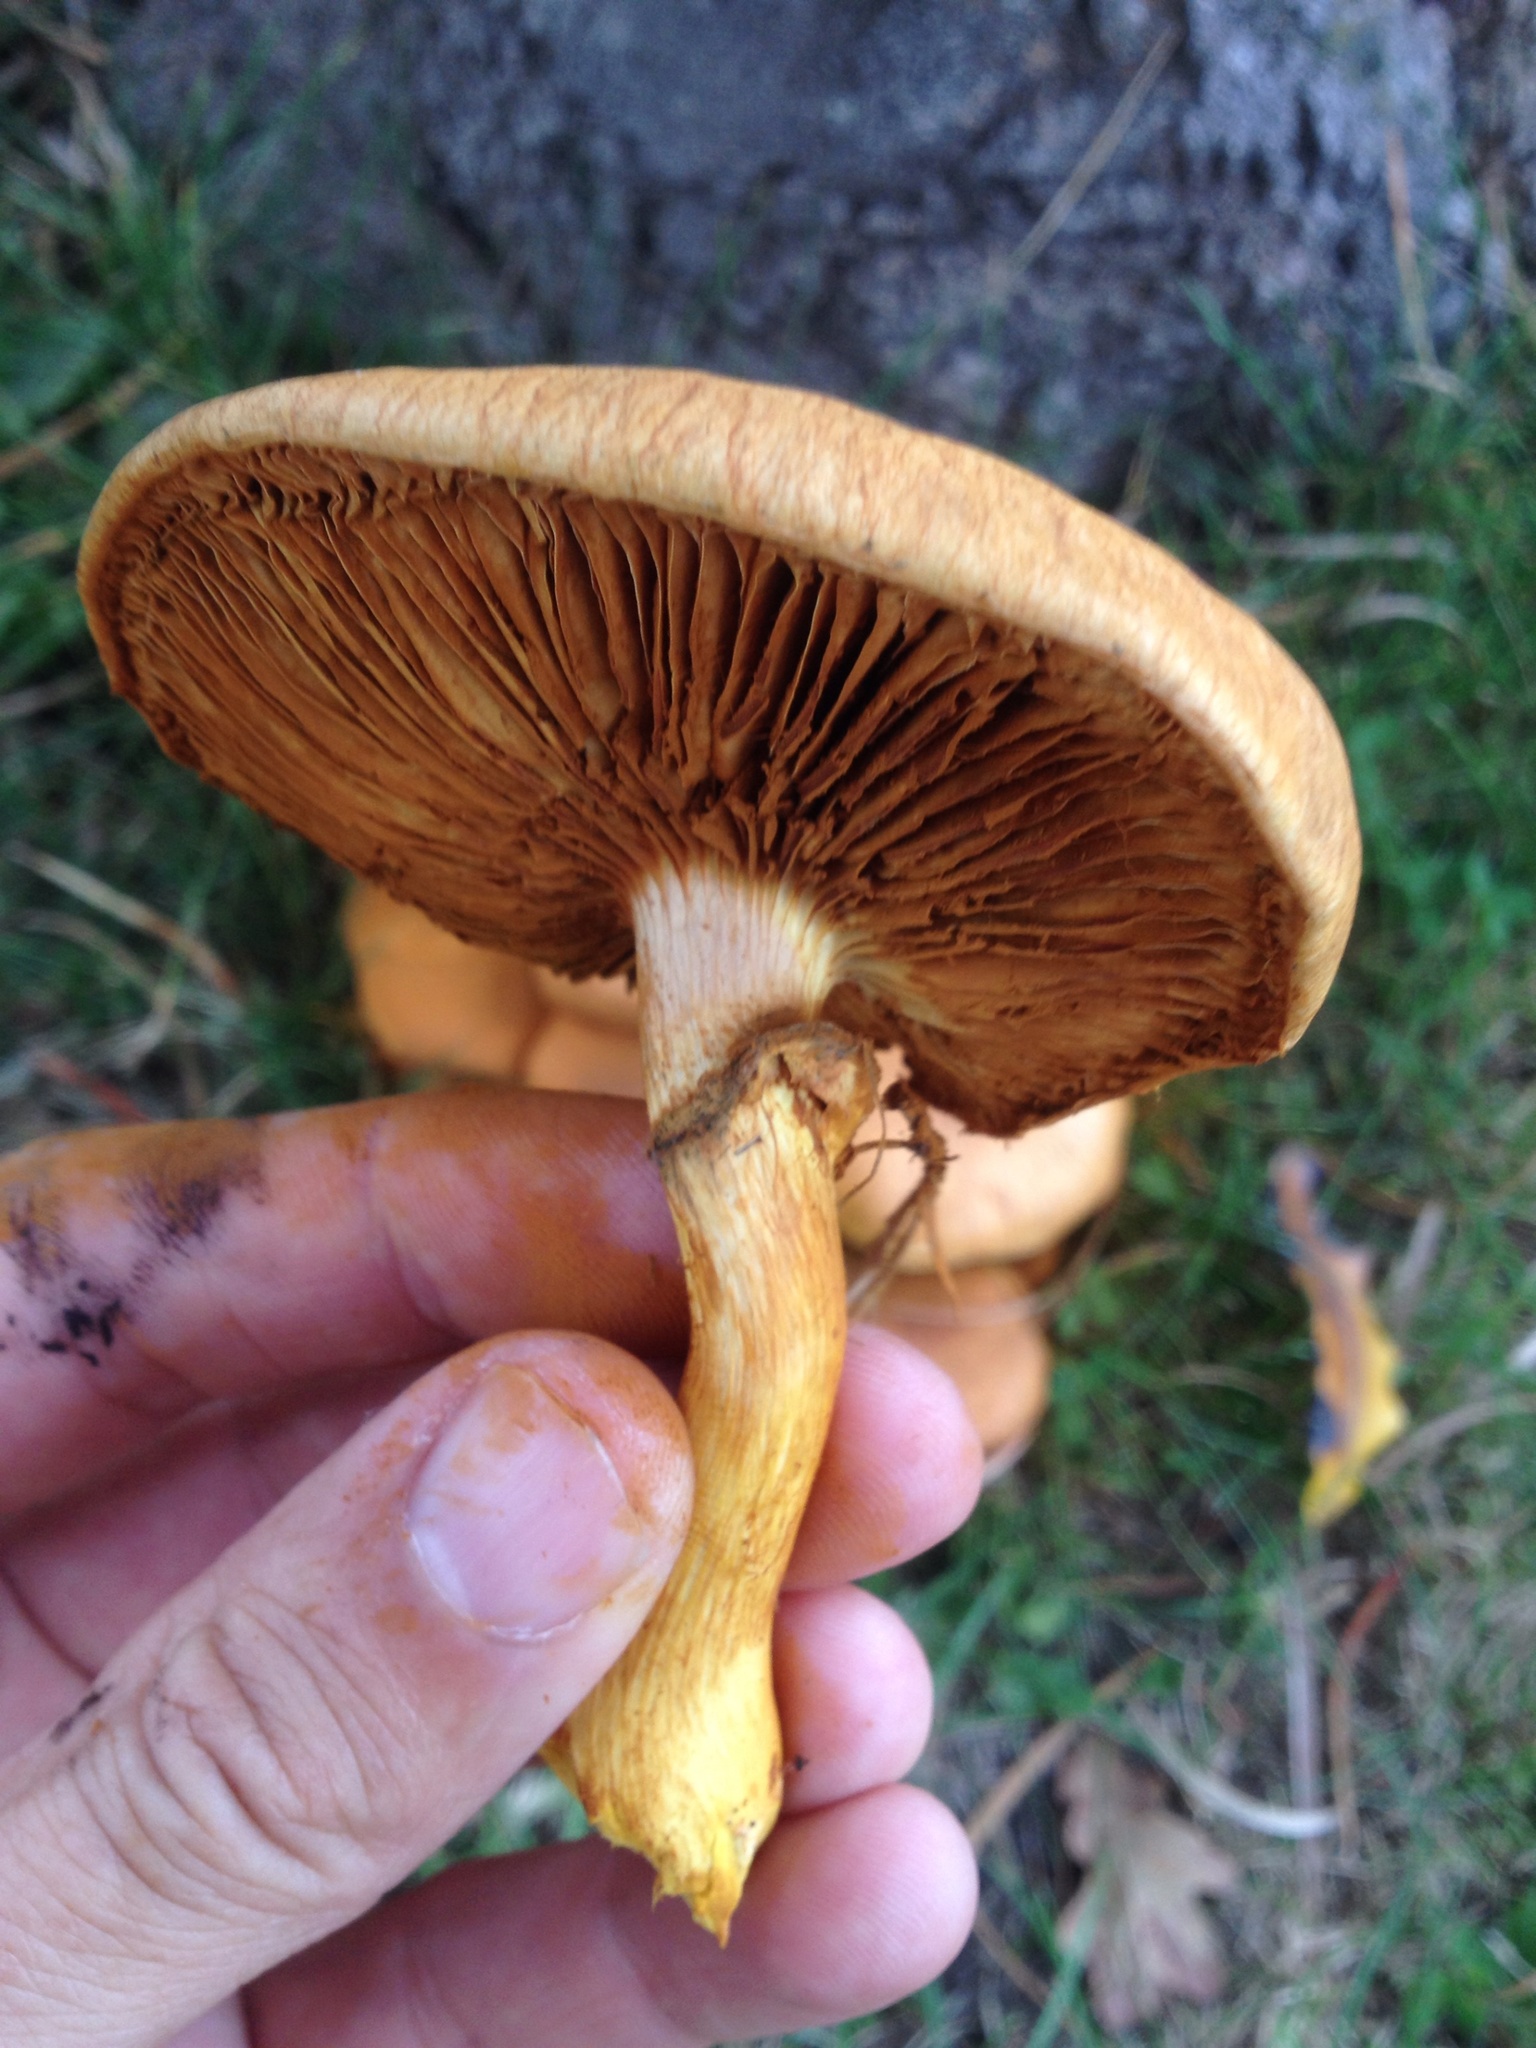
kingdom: Fungi
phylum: Basidiomycota
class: Agaricomycetes
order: Agaricales
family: Hymenogastraceae
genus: Gymnopilus
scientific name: Gymnopilus junonius
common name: Spectacular rustgill
